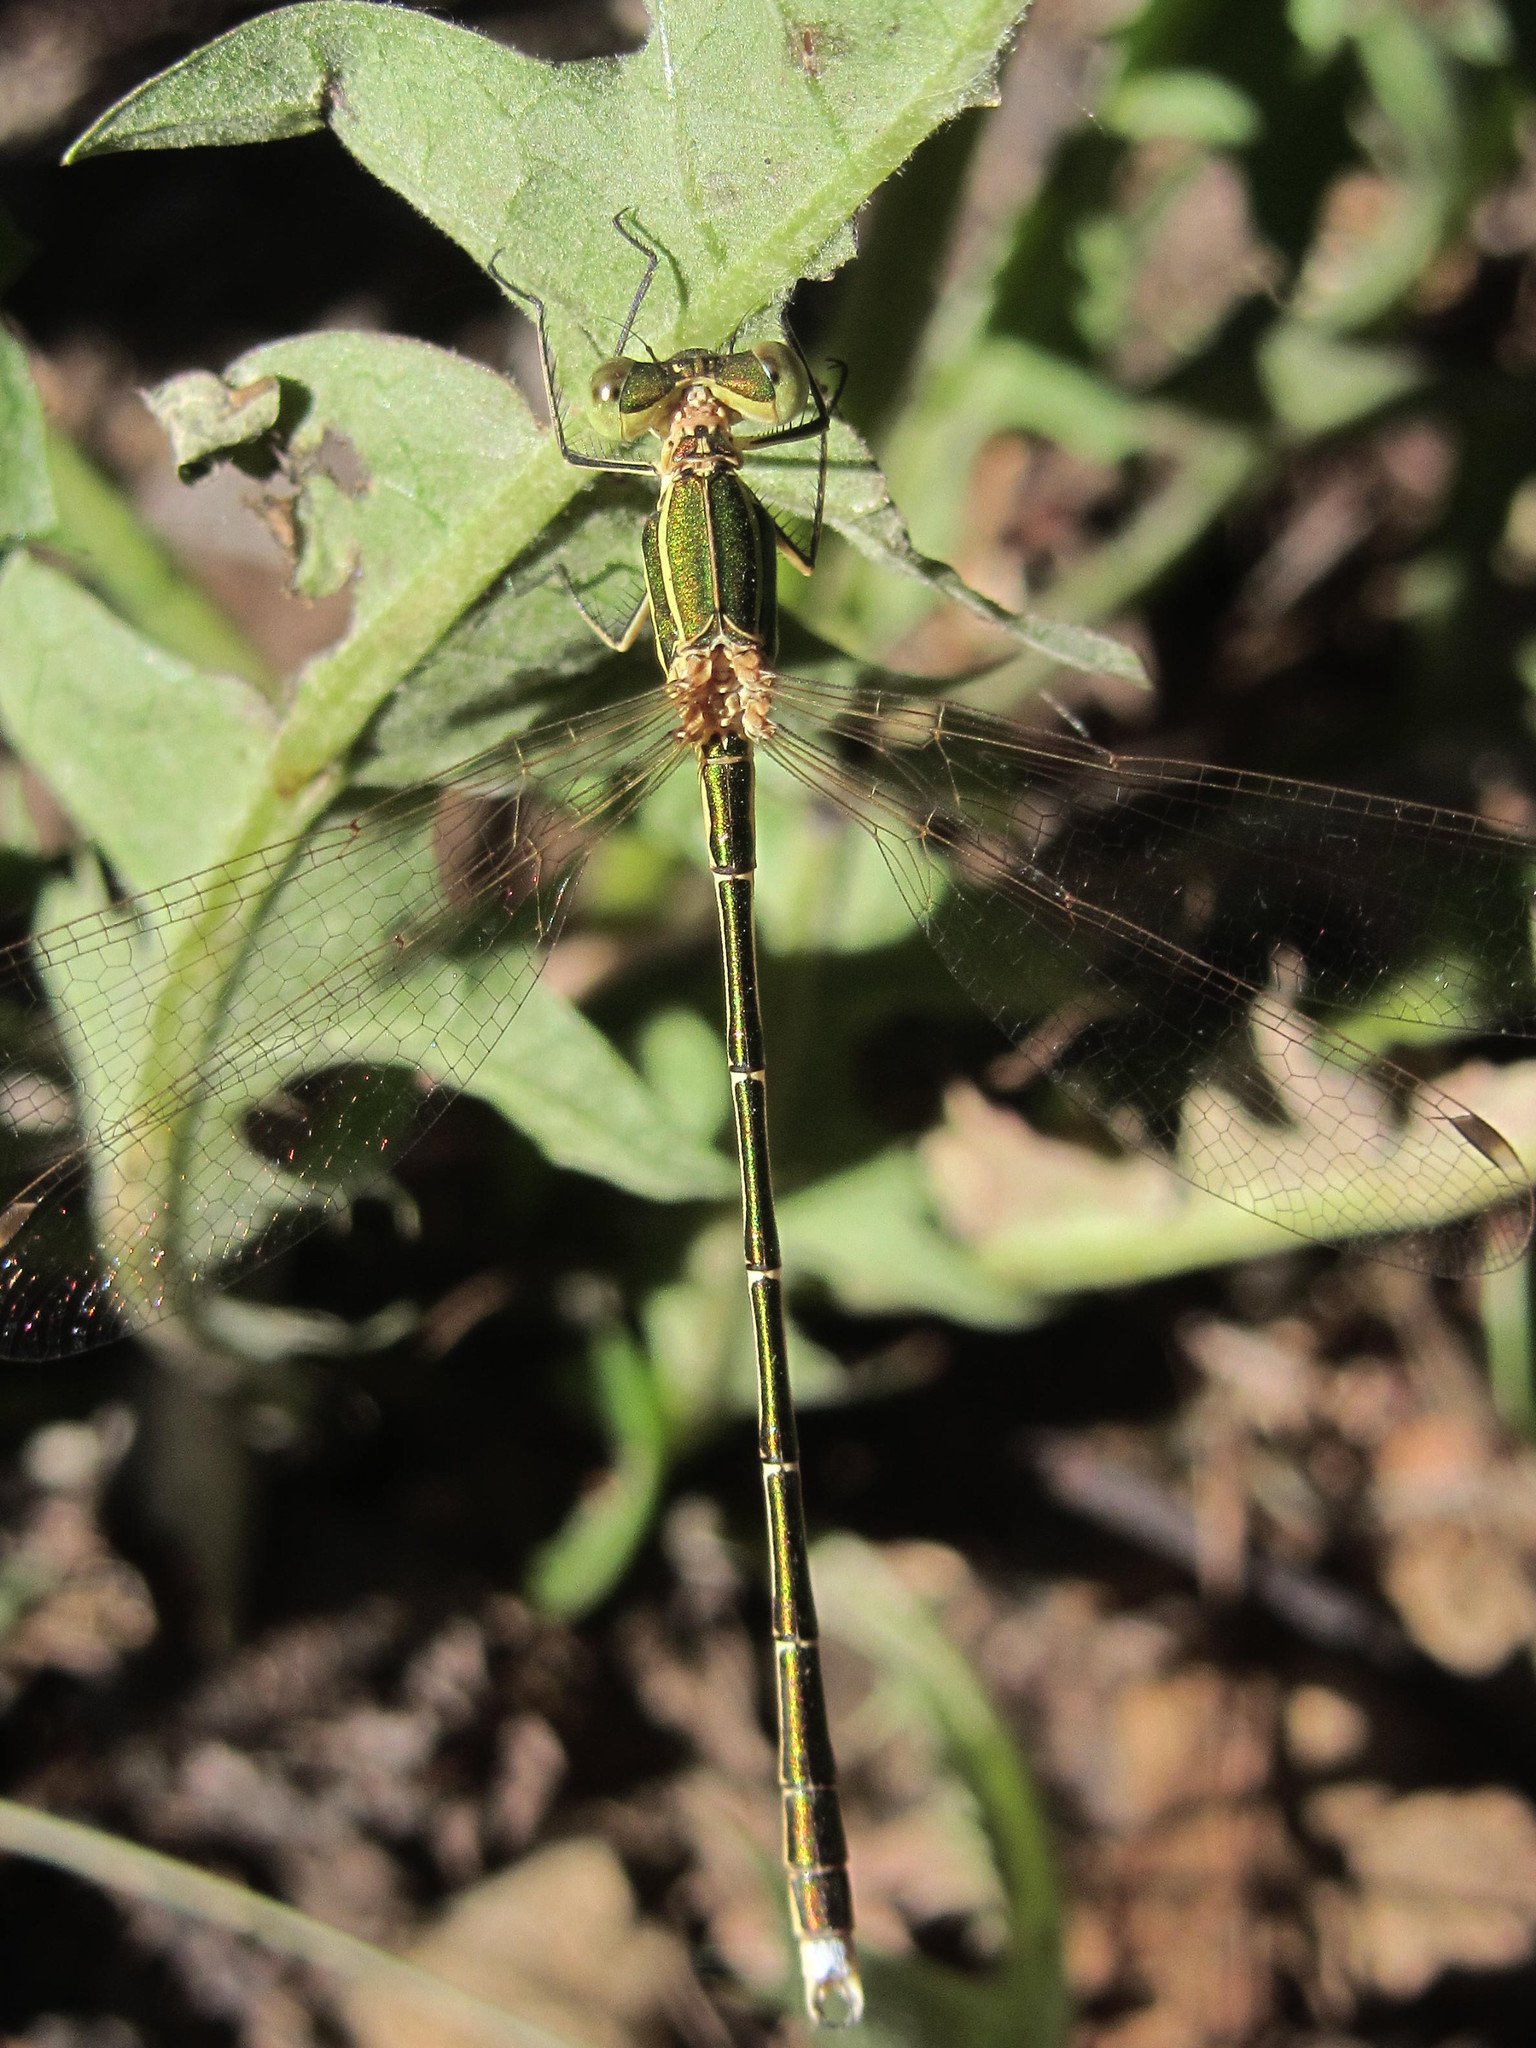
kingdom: Animalia
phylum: Arthropoda
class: Insecta
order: Odonata
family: Lestidae
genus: Lestes
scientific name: Lestes barbarus
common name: Migrant spreadwing
